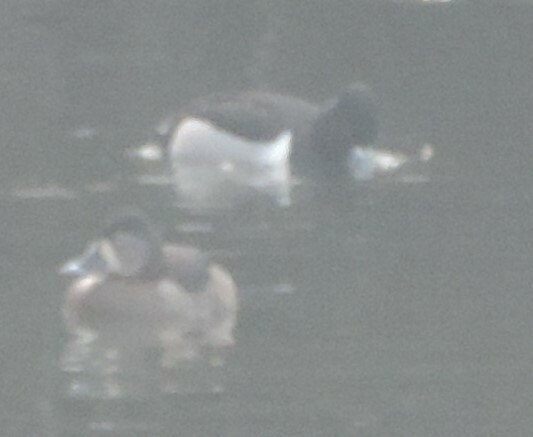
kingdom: Animalia
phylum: Chordata
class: Aves
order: Anseriformes
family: Anatidae
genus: Aythya
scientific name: Aythya collaris
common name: Ring-necked duck
